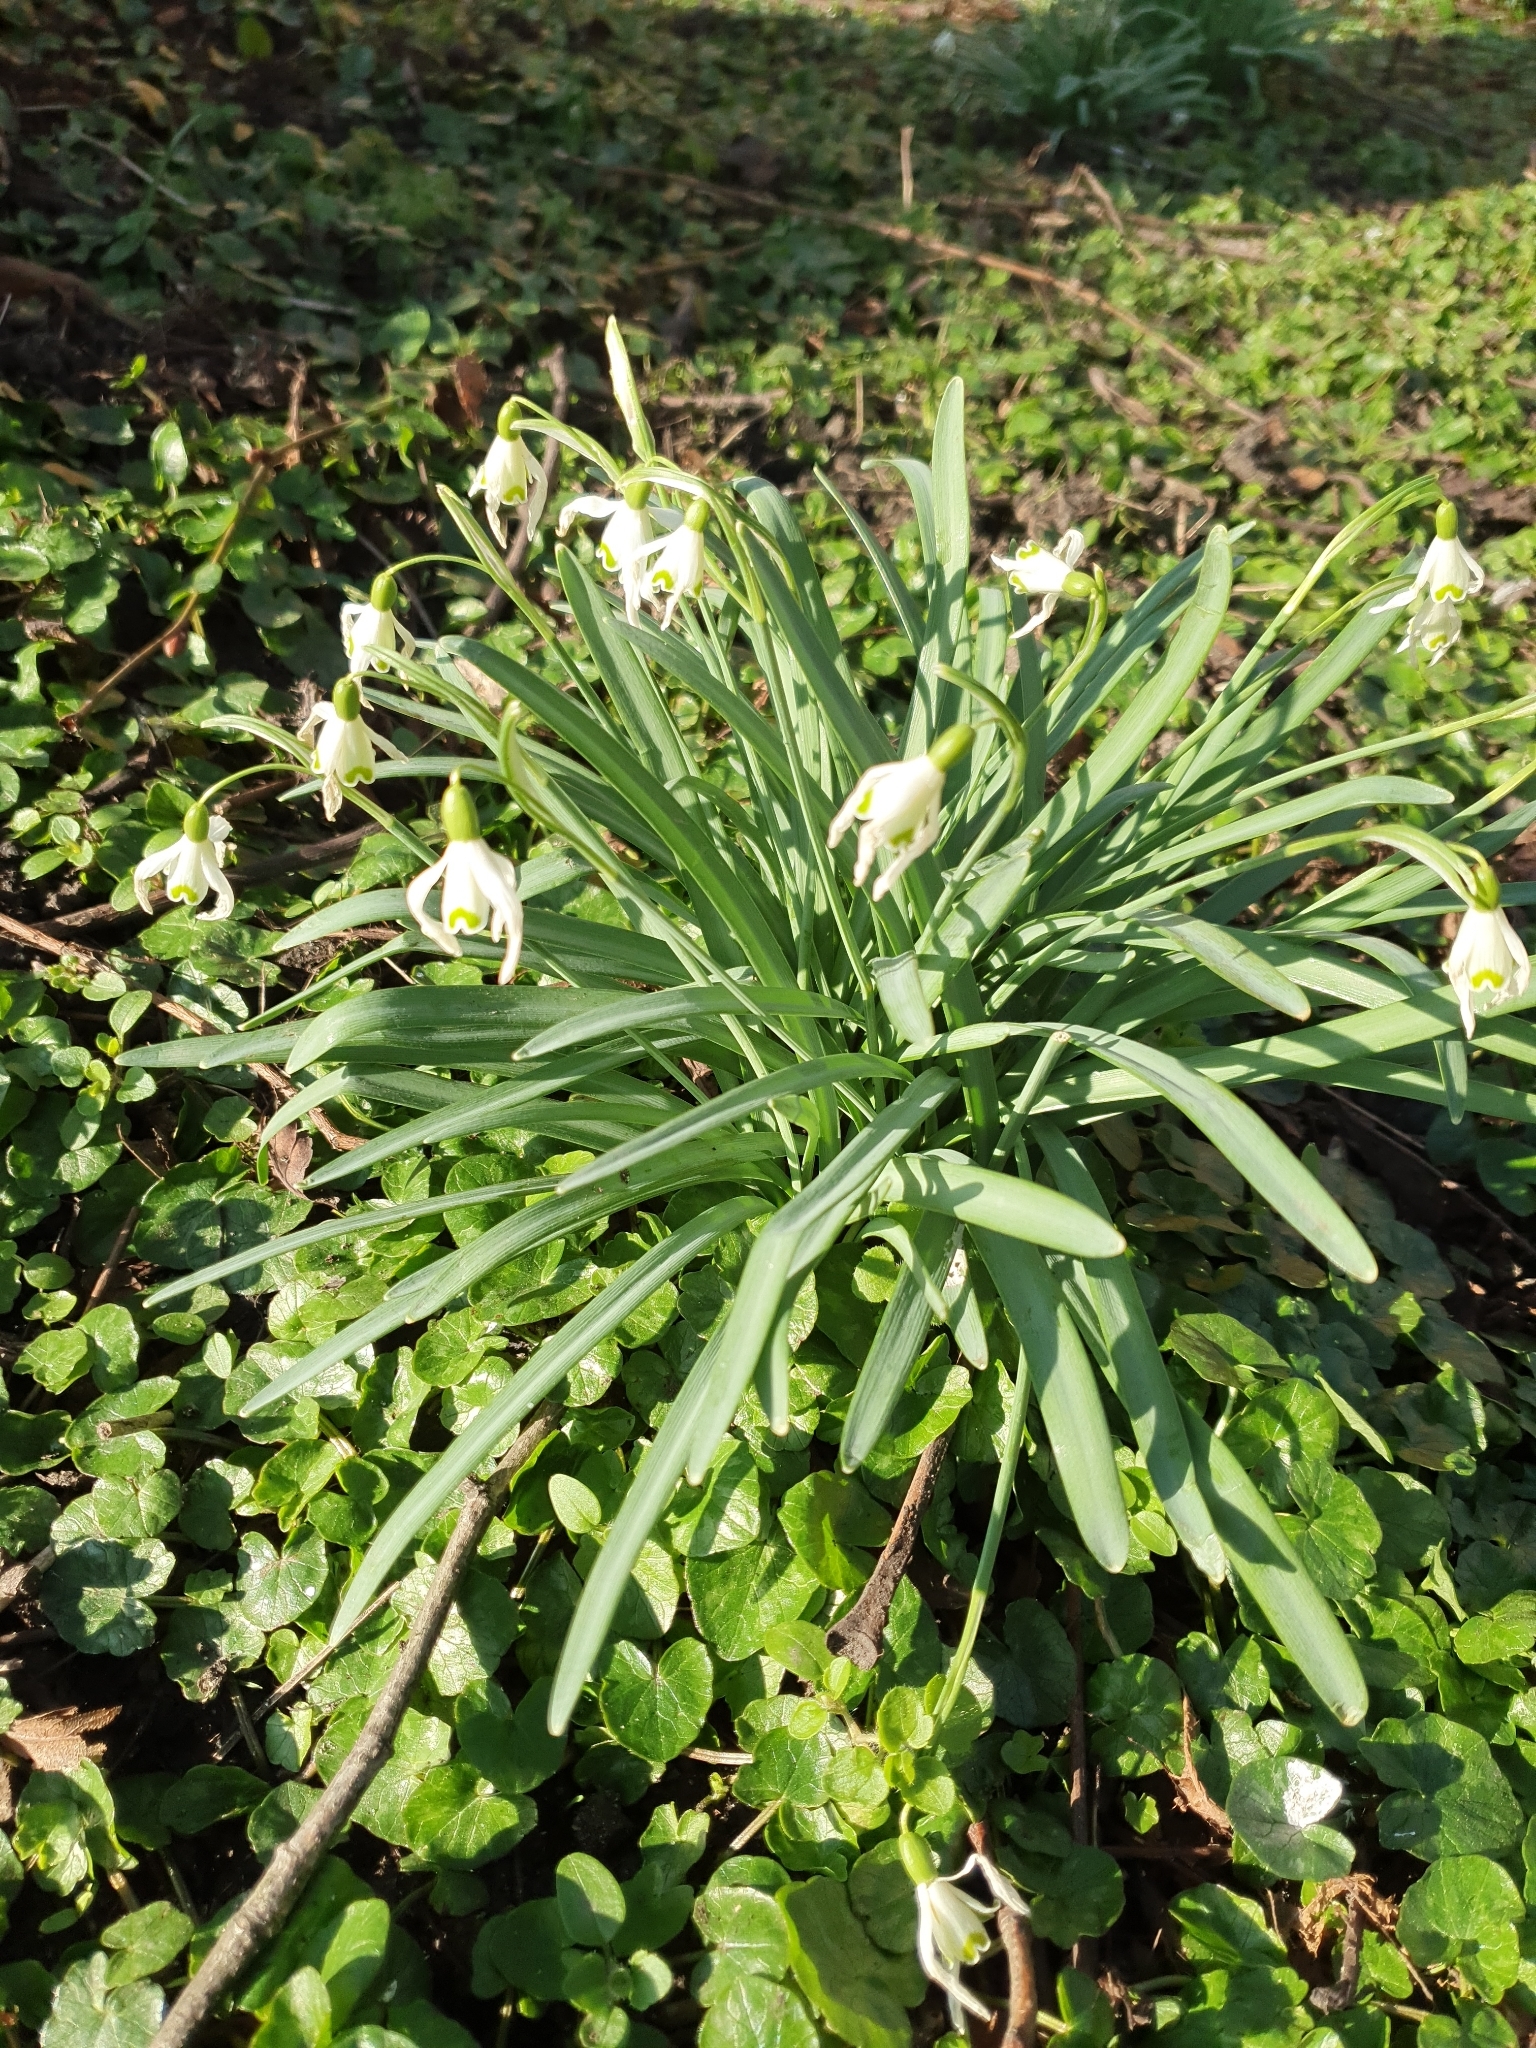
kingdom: Plantae
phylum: Tracheophyta
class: Liliopsida
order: Asparagales
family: Amaryllidaceae
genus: Galanthus
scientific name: Galanthus nivalis
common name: Snowdrop
